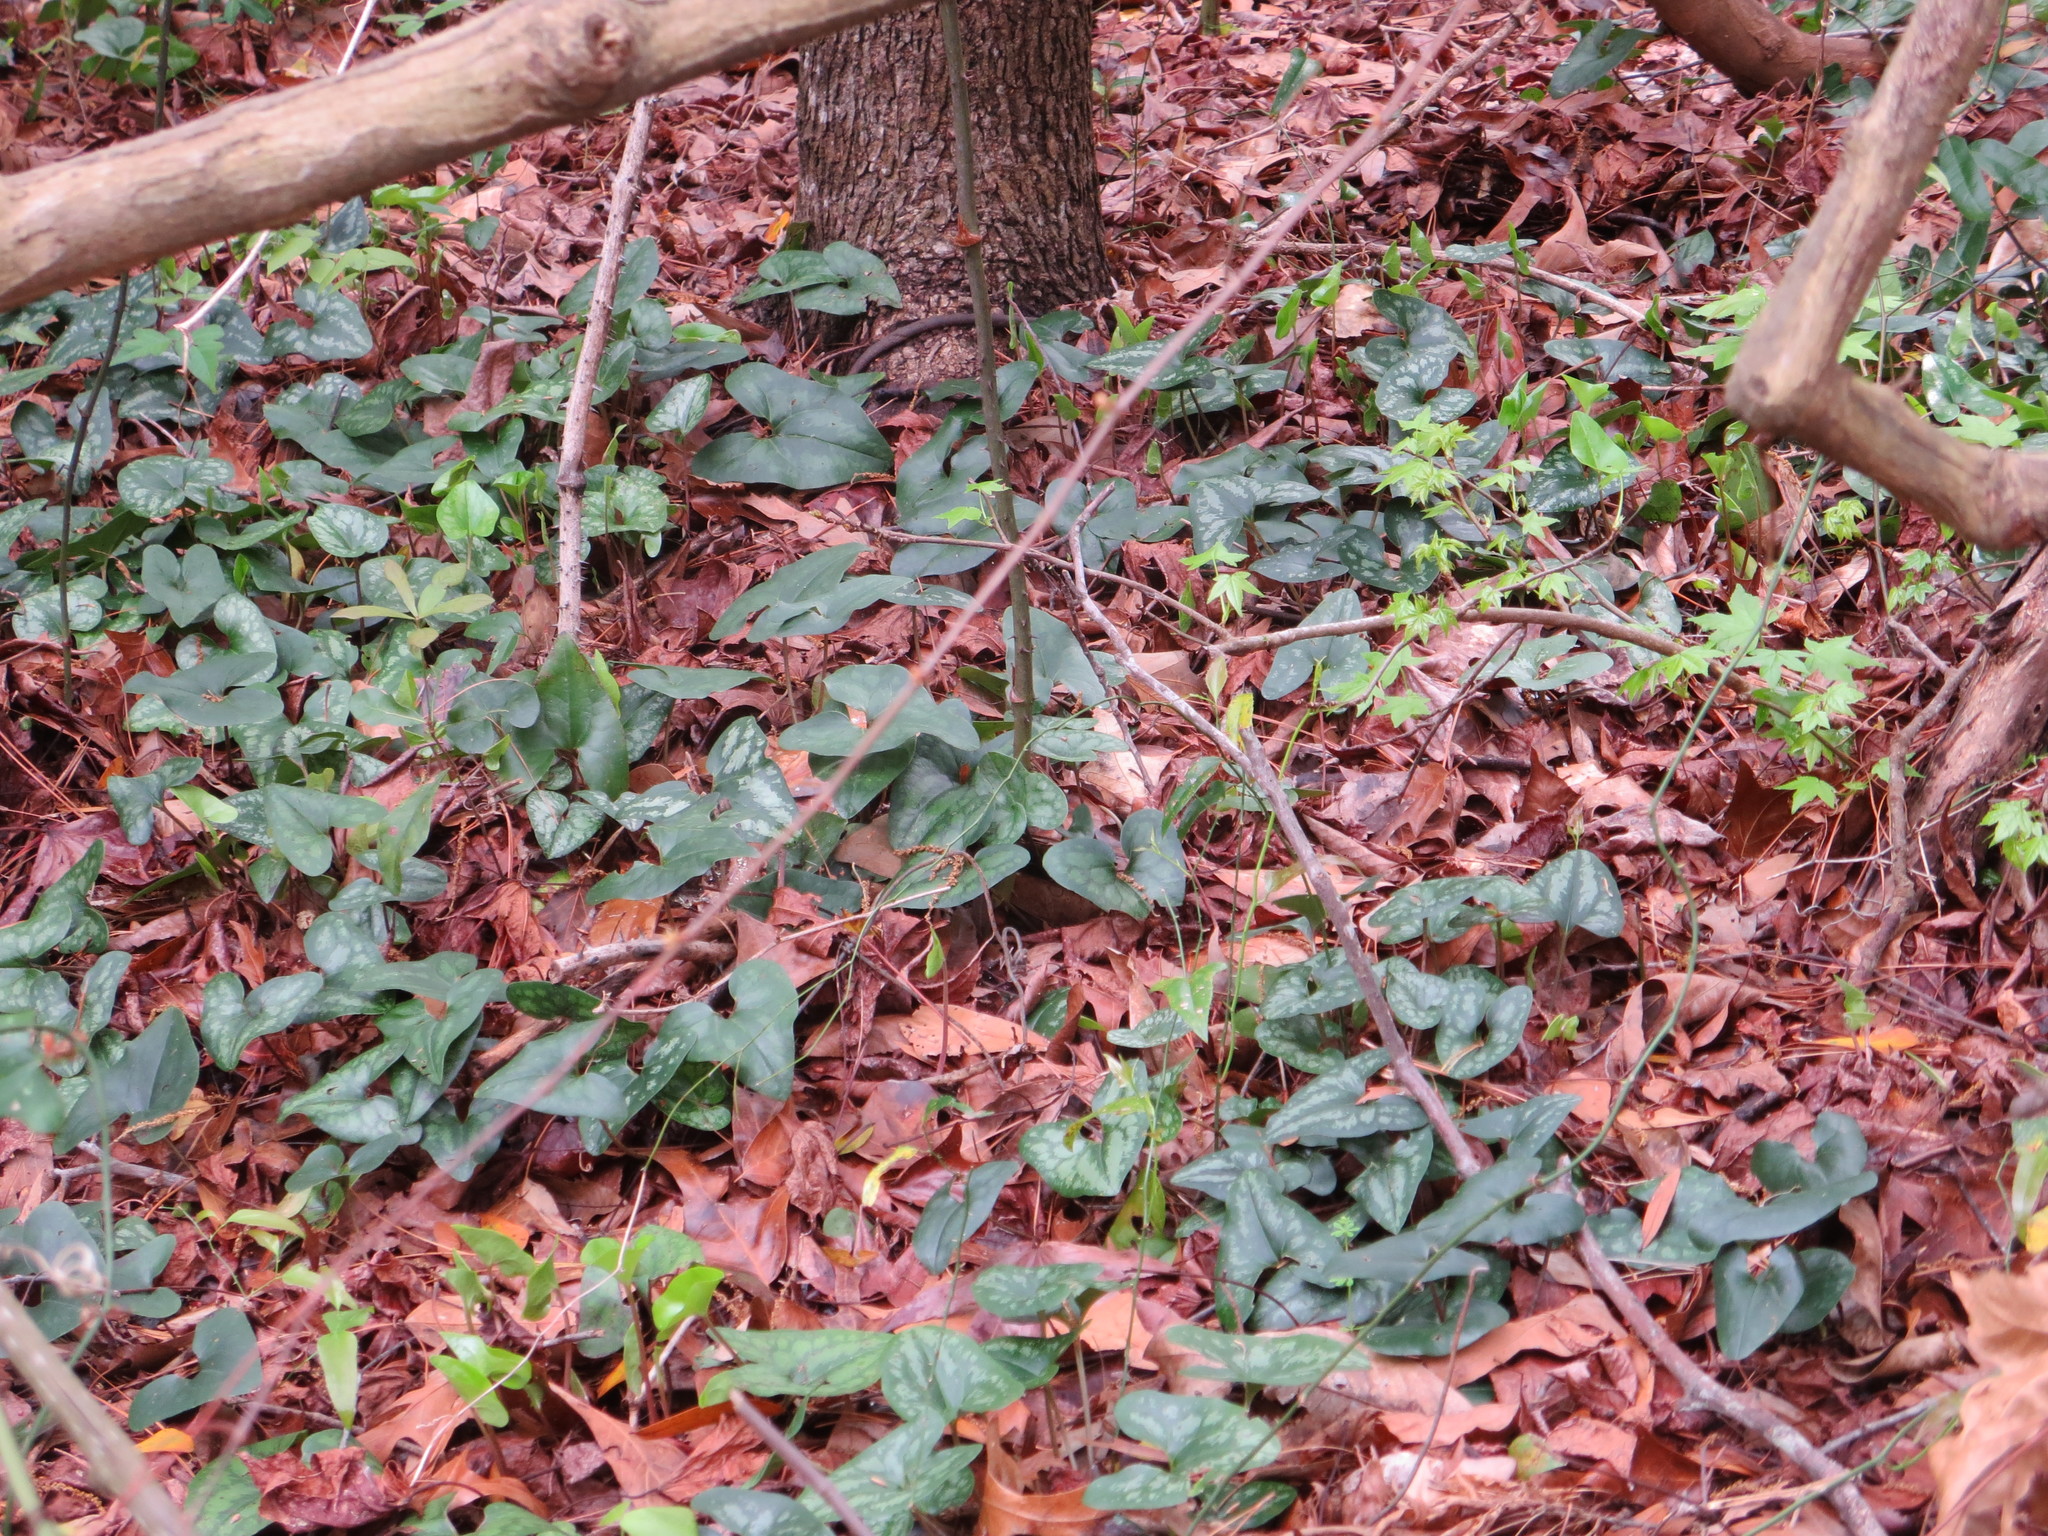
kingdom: Plantae
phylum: Tracheophyta
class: Magnoliopsida
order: Piperales
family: Aristolochiaceae
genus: Hexastylis
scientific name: Hexastylis arifolia
